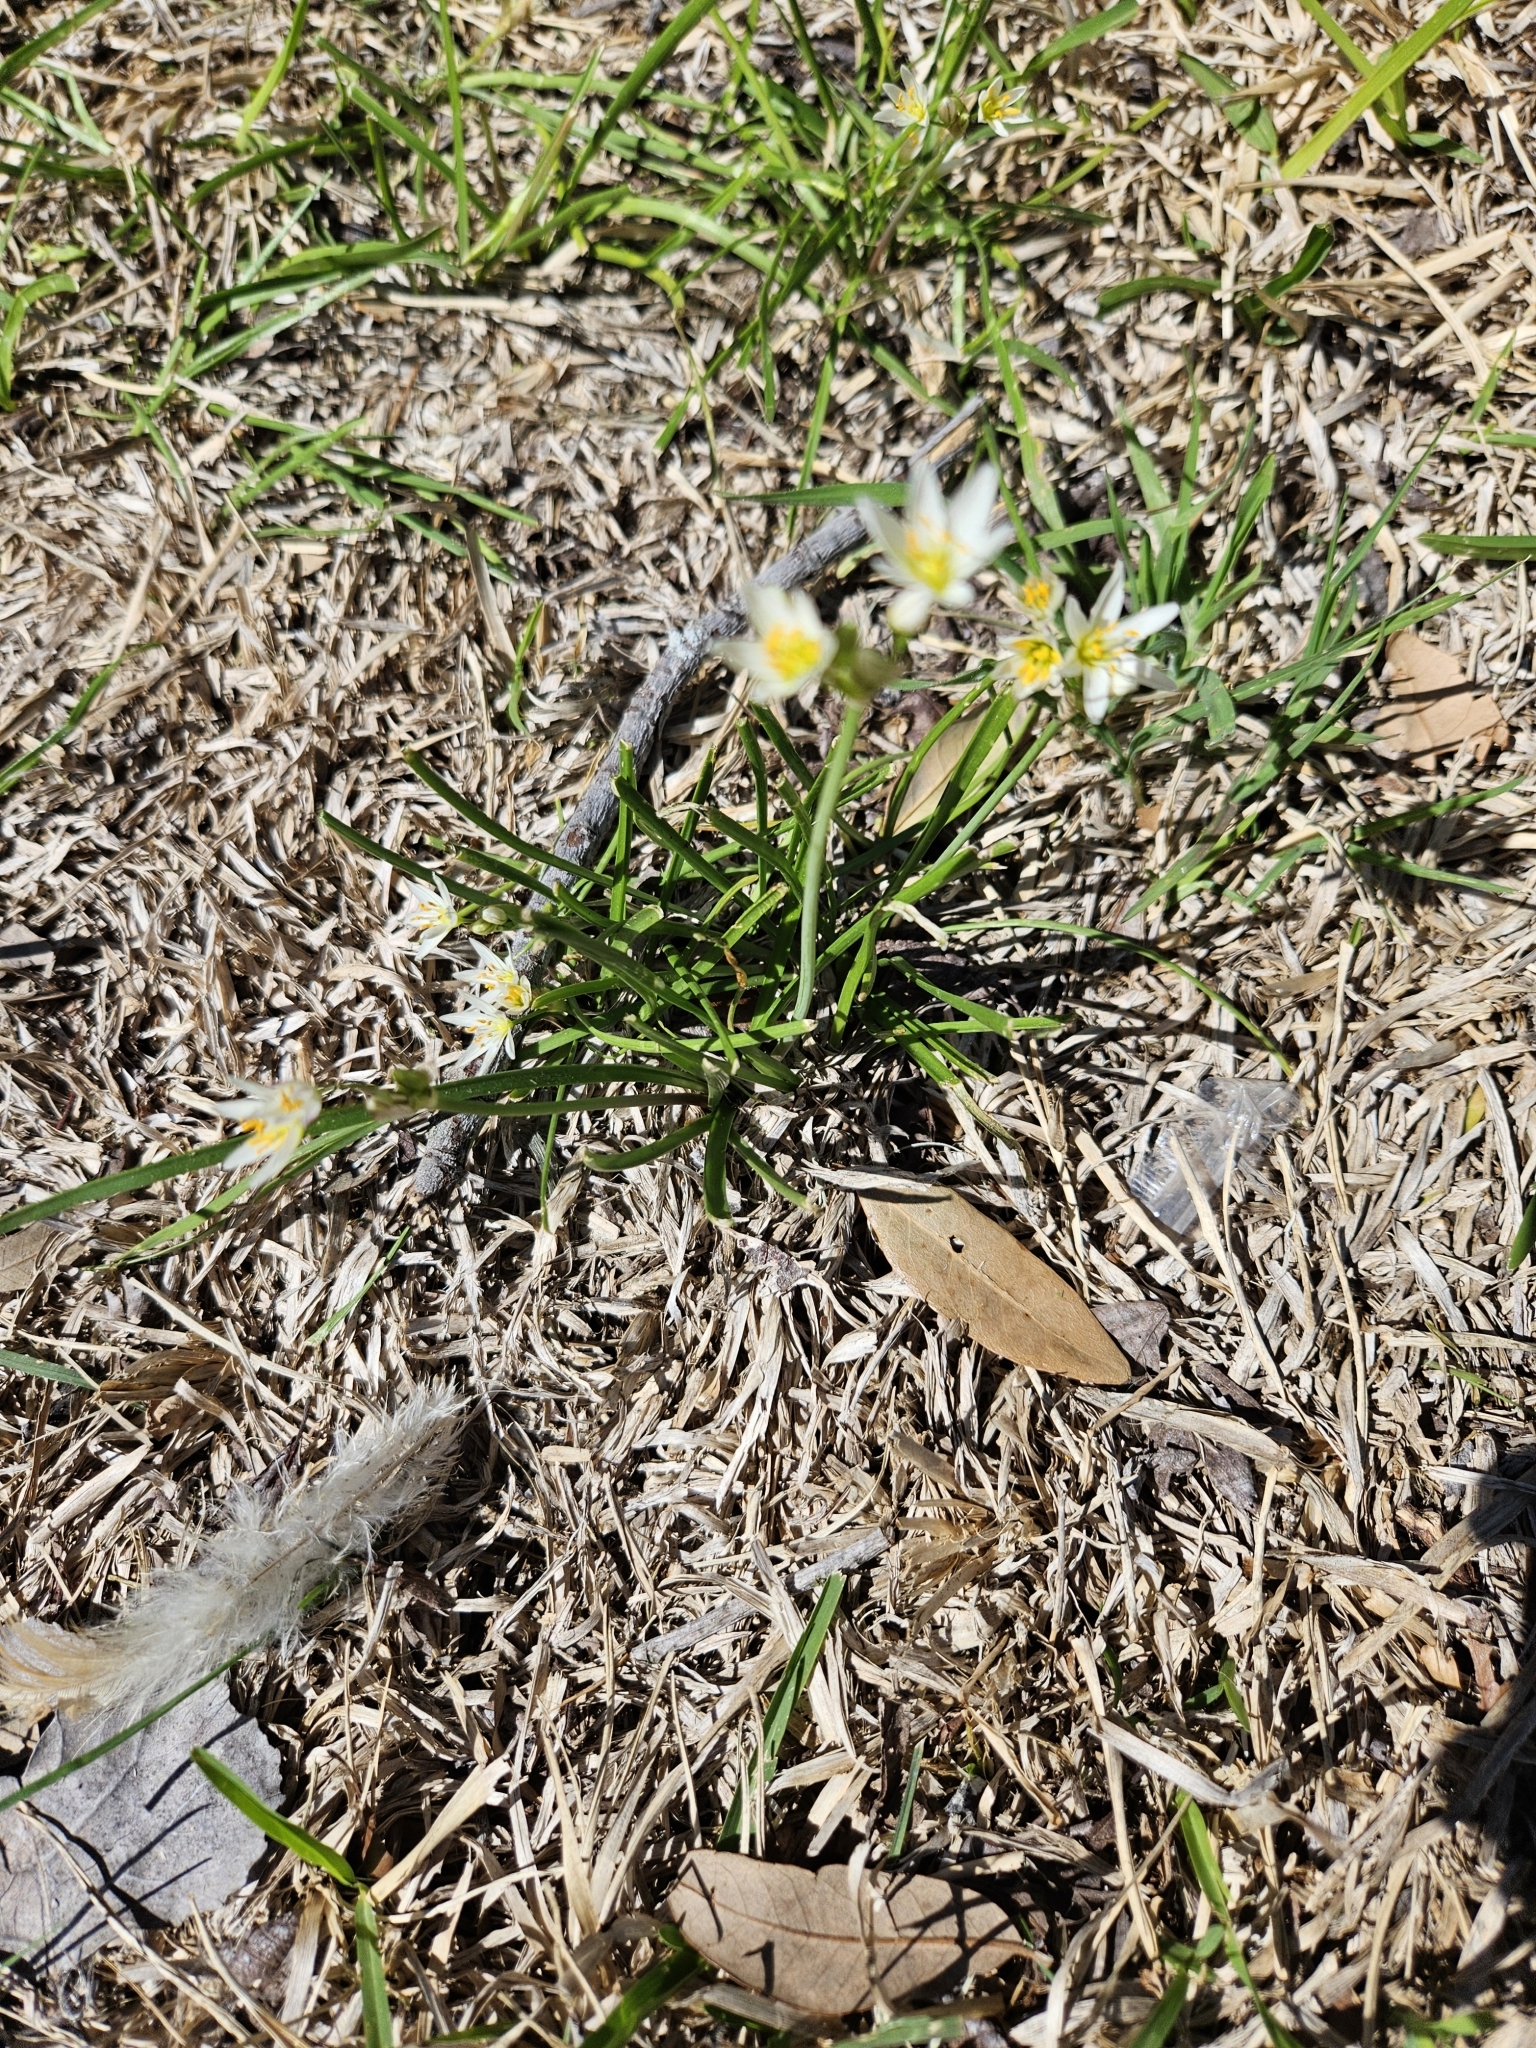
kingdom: Plantae
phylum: Tracheophyta
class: Liliopsida
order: Asparagales
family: Amaryllidaceae
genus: Nothoscordum
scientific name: Nothoscordum bivalve
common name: Crow-poison
